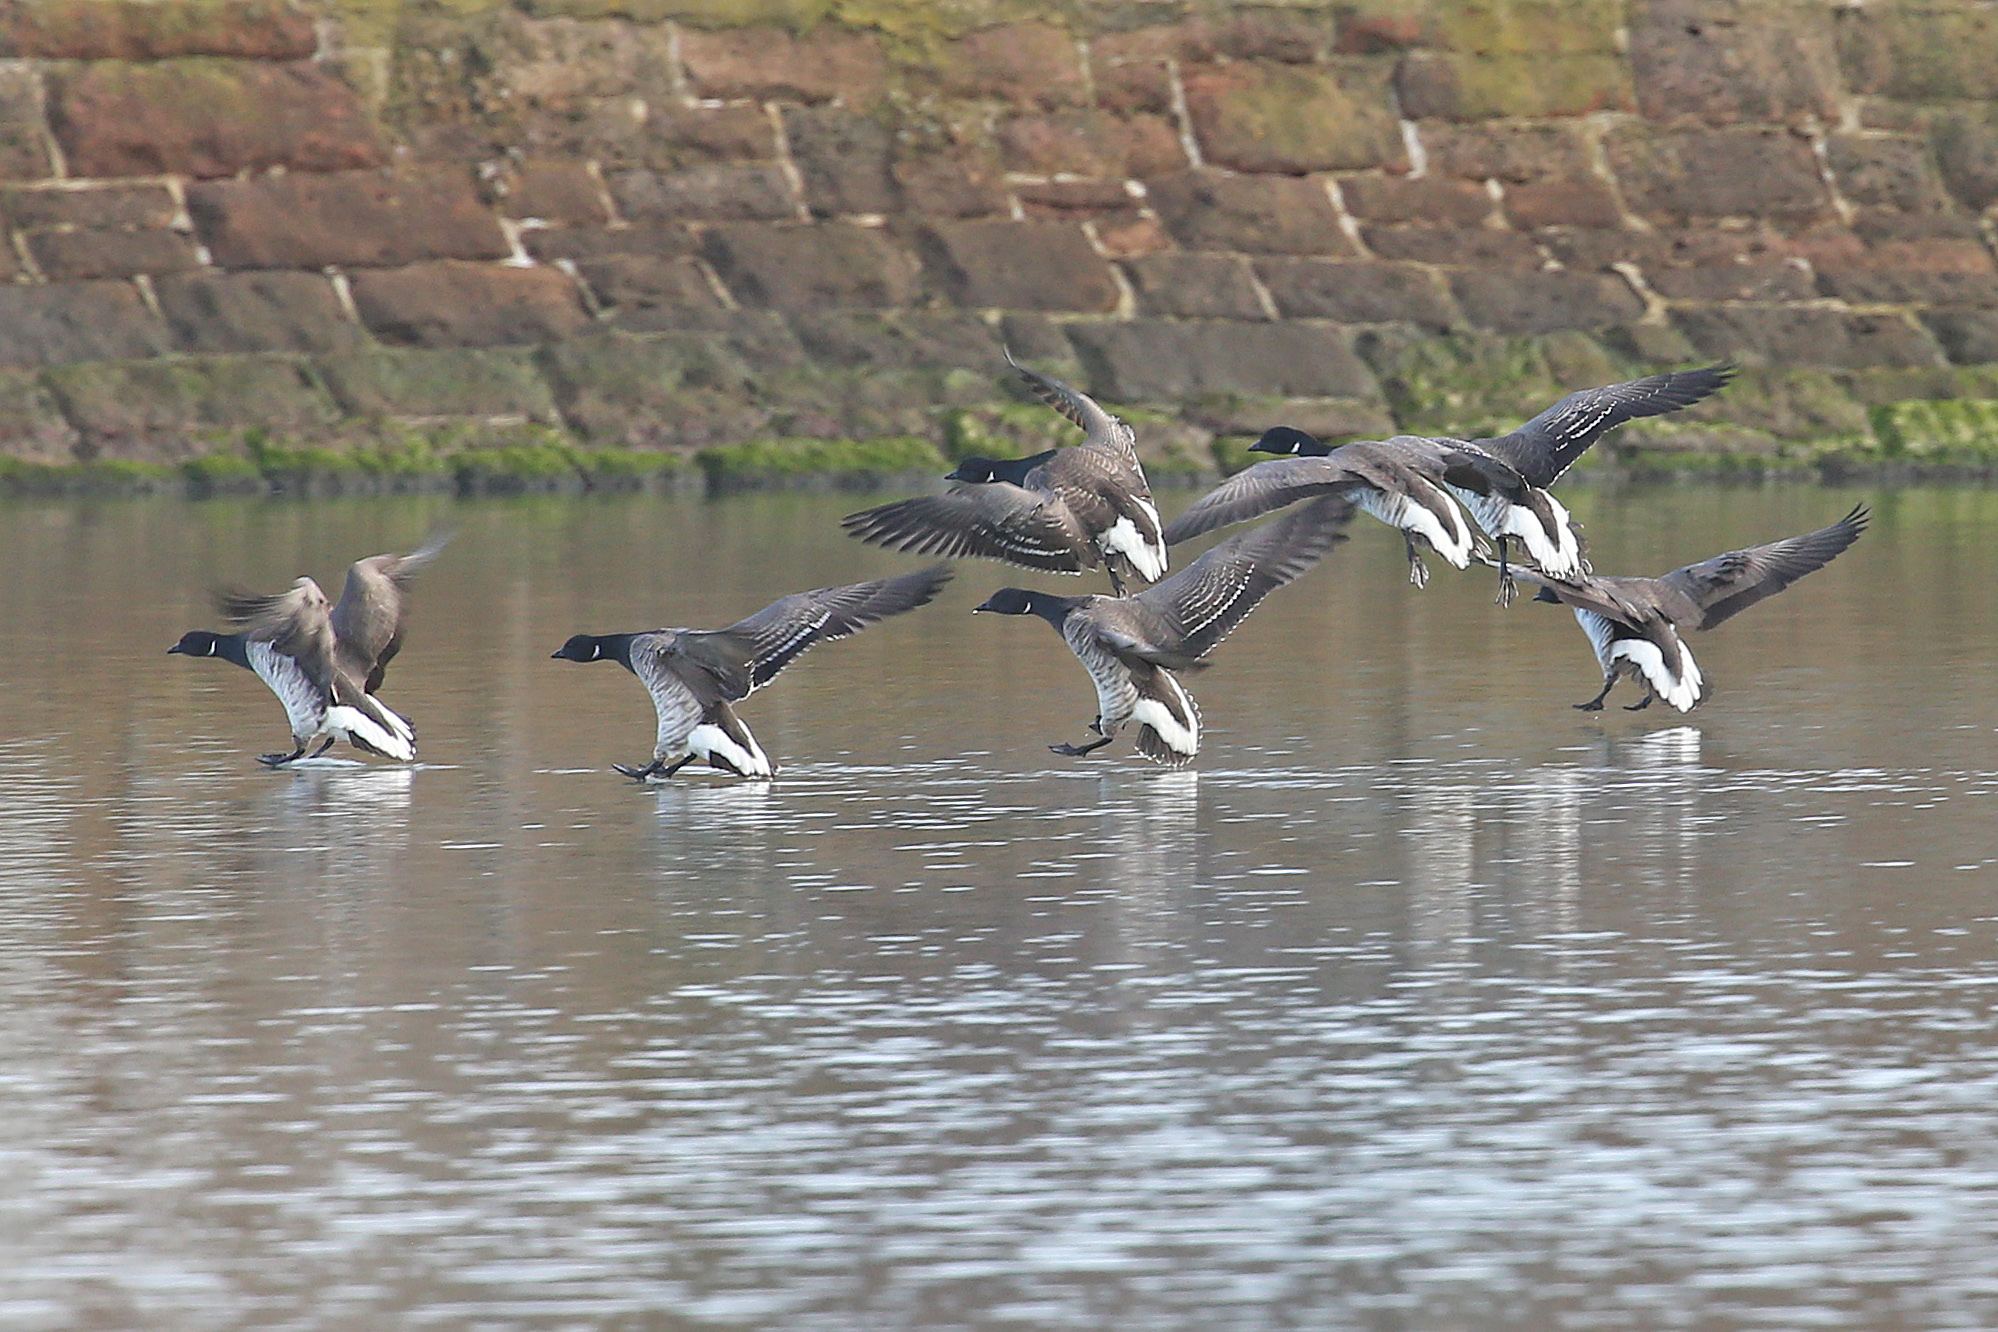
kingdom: Animalia
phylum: Chordata
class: Aves
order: Anseriformes
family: Anatidae
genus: Branta
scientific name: Branta bernicla
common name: Brant goose
